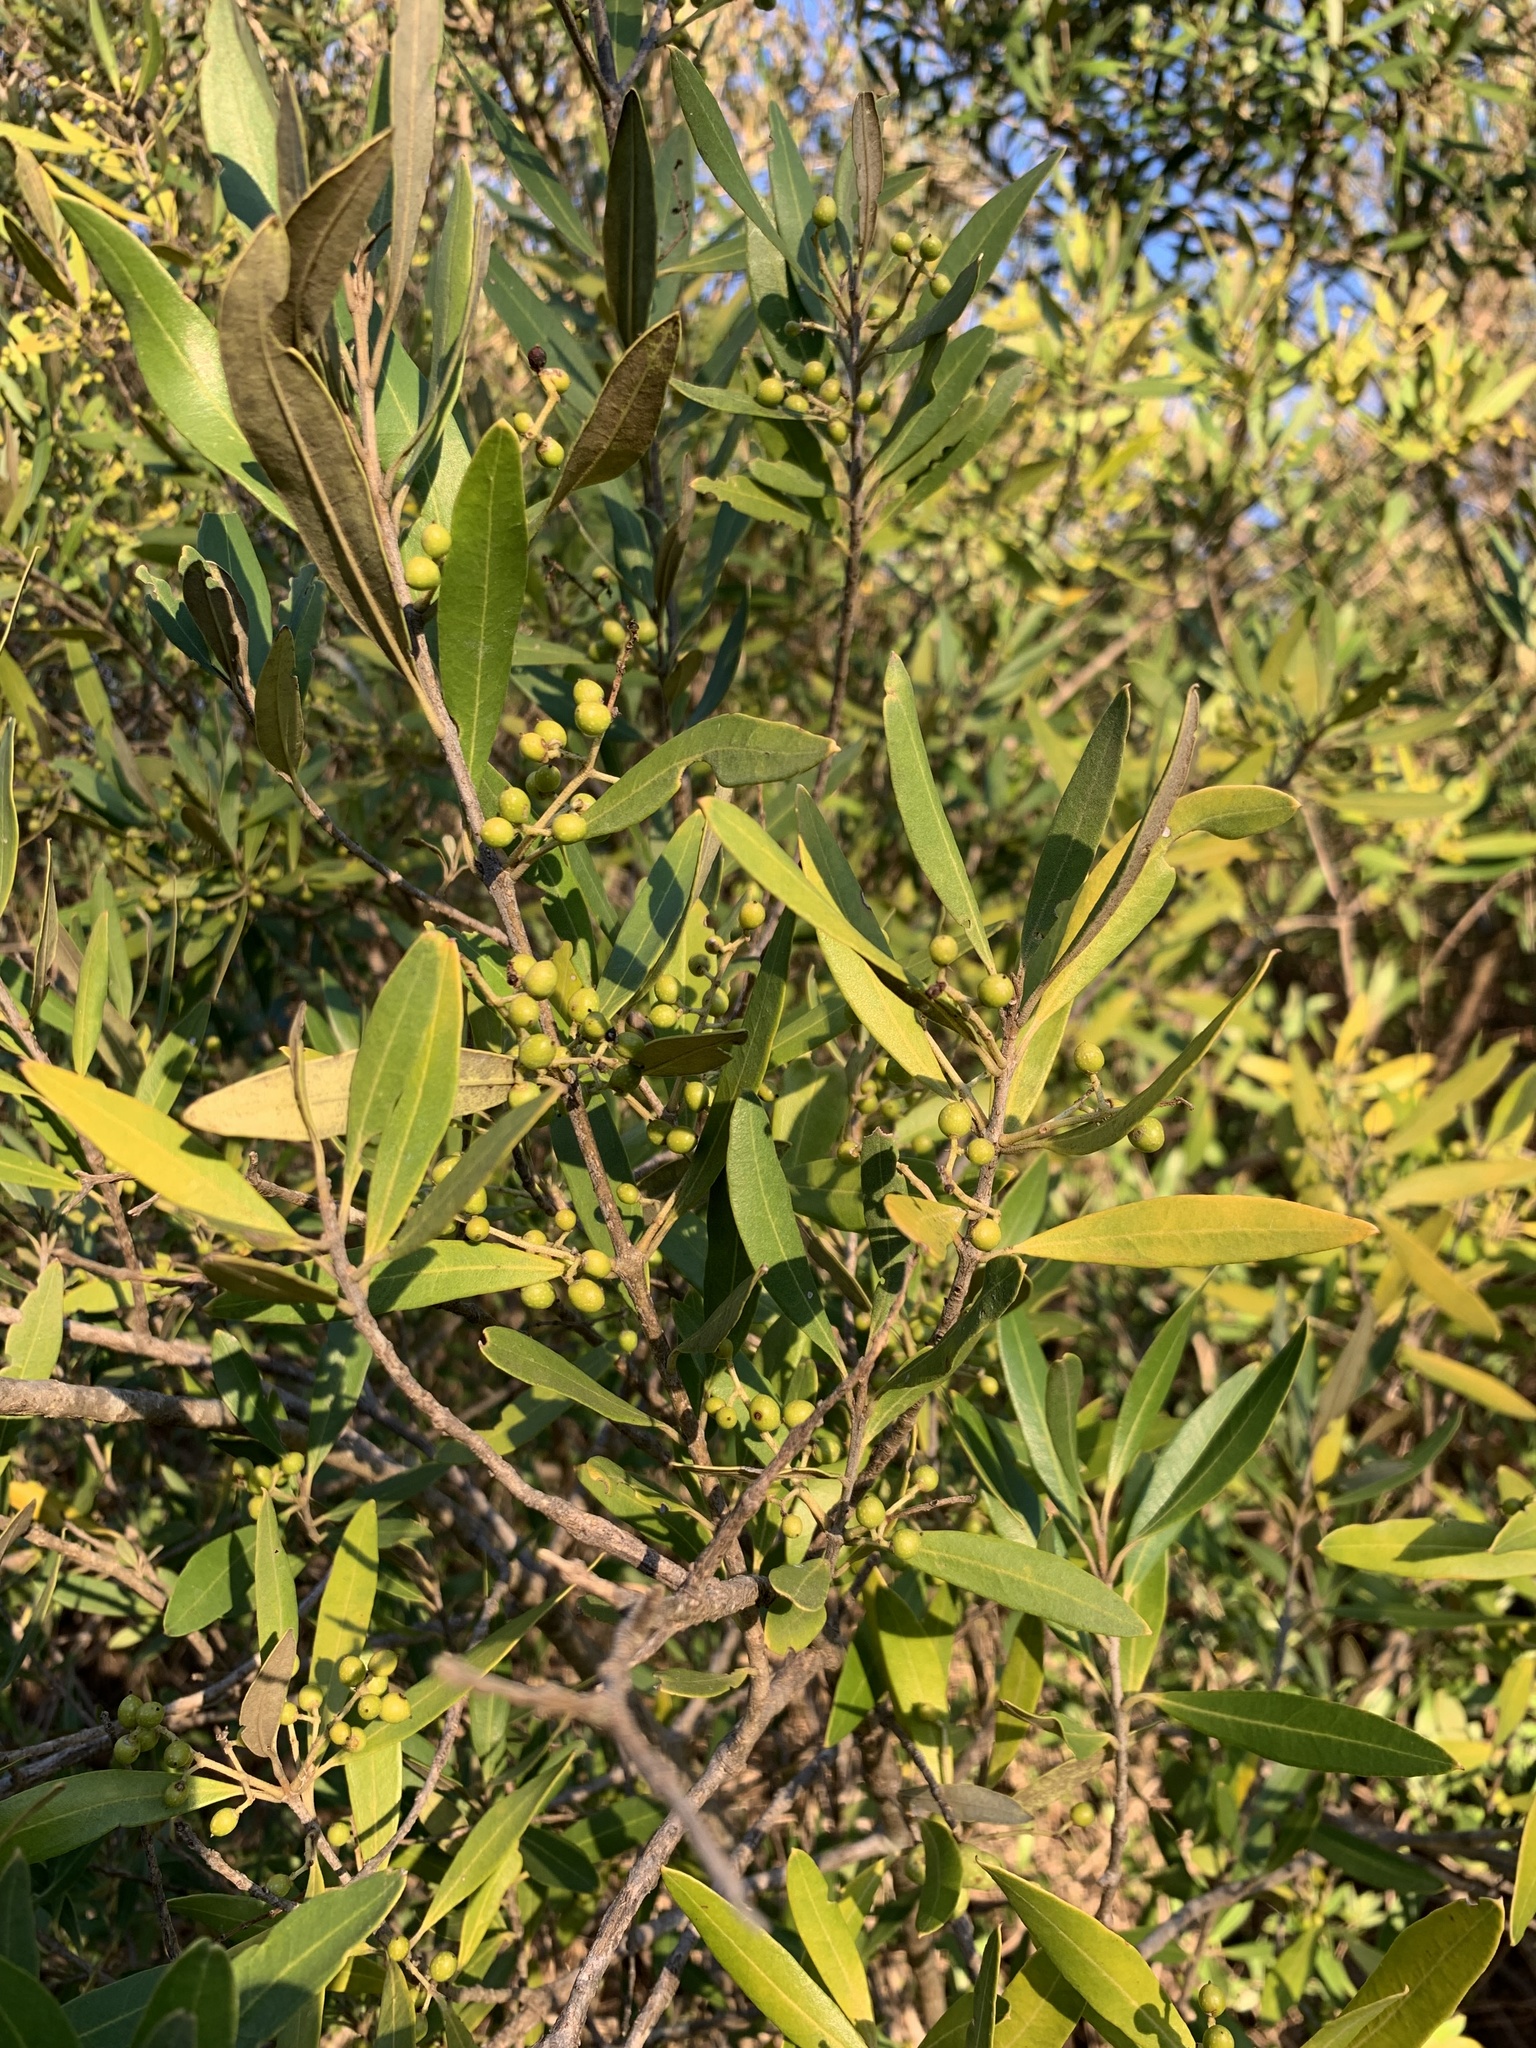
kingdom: Plantae
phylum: Tracheophyta
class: Magnoliopsida
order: Lamiales
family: Oleaceae
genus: Olea
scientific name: Olea europaea
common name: Olive
